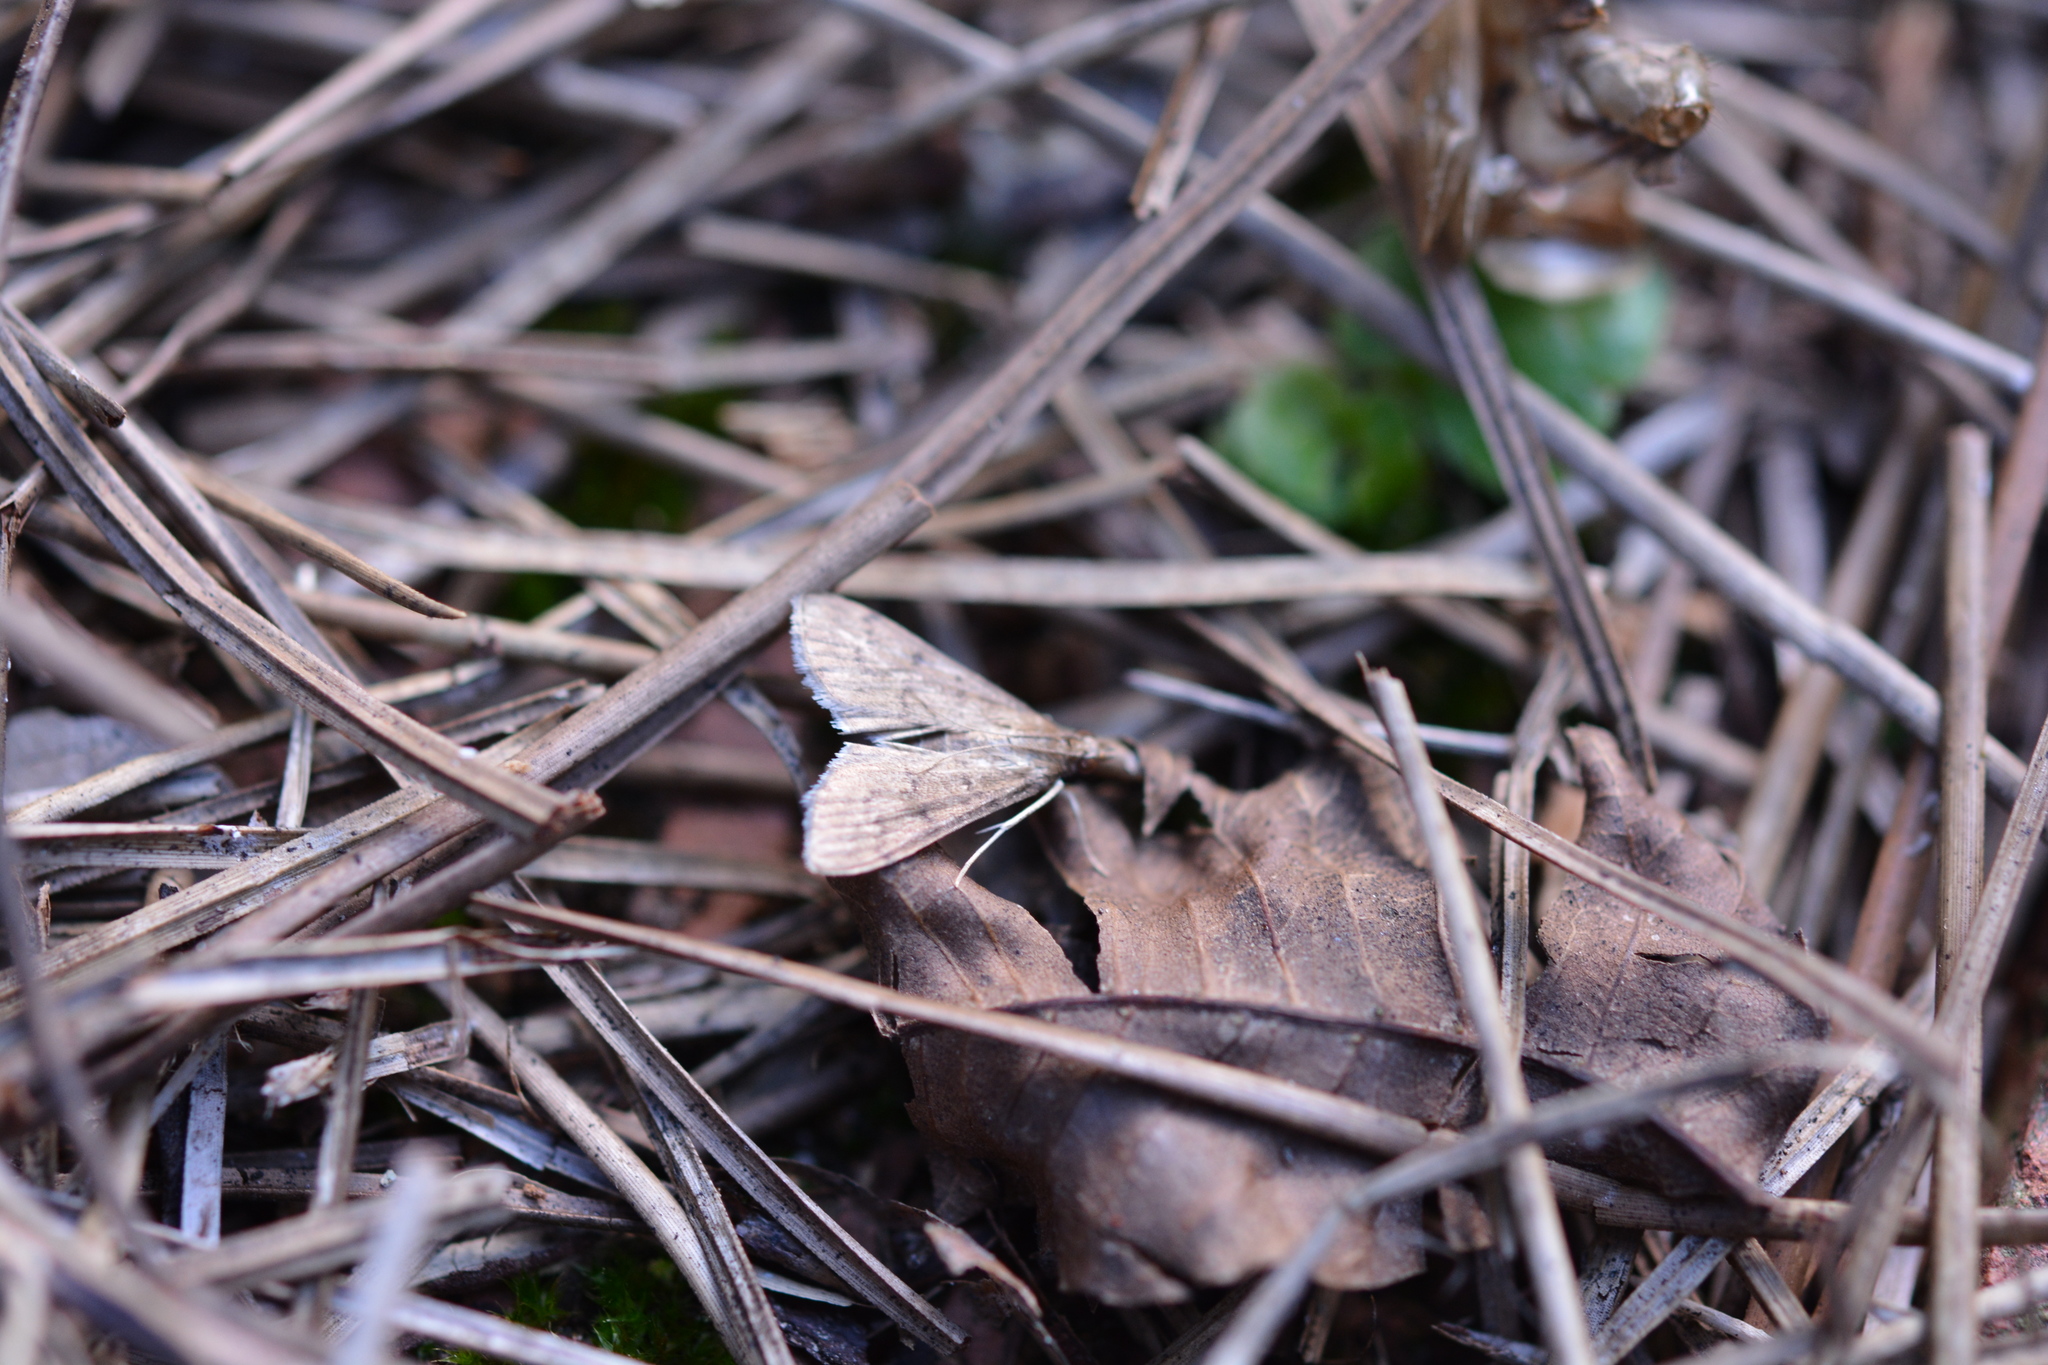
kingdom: Animalia
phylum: Arthropoda
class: Insecta
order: Lepidoptera
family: Crambidae
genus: Herpetogramma
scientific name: Herpetogramma phaeopteralis
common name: Dusky herpetogramma moth
